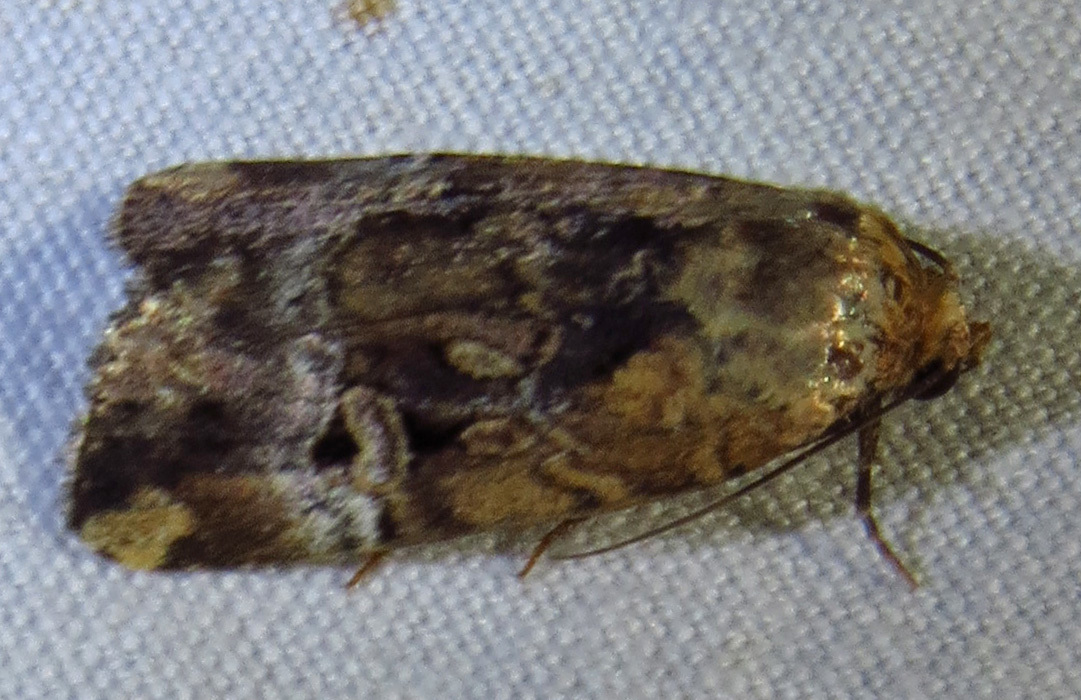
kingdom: Animalia
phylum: Arthropoda
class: Insecta
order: Lepidoptera
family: Noctuidae
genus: Elaphria
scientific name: Elaphria chalcedonia
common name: Chalcedony midget
